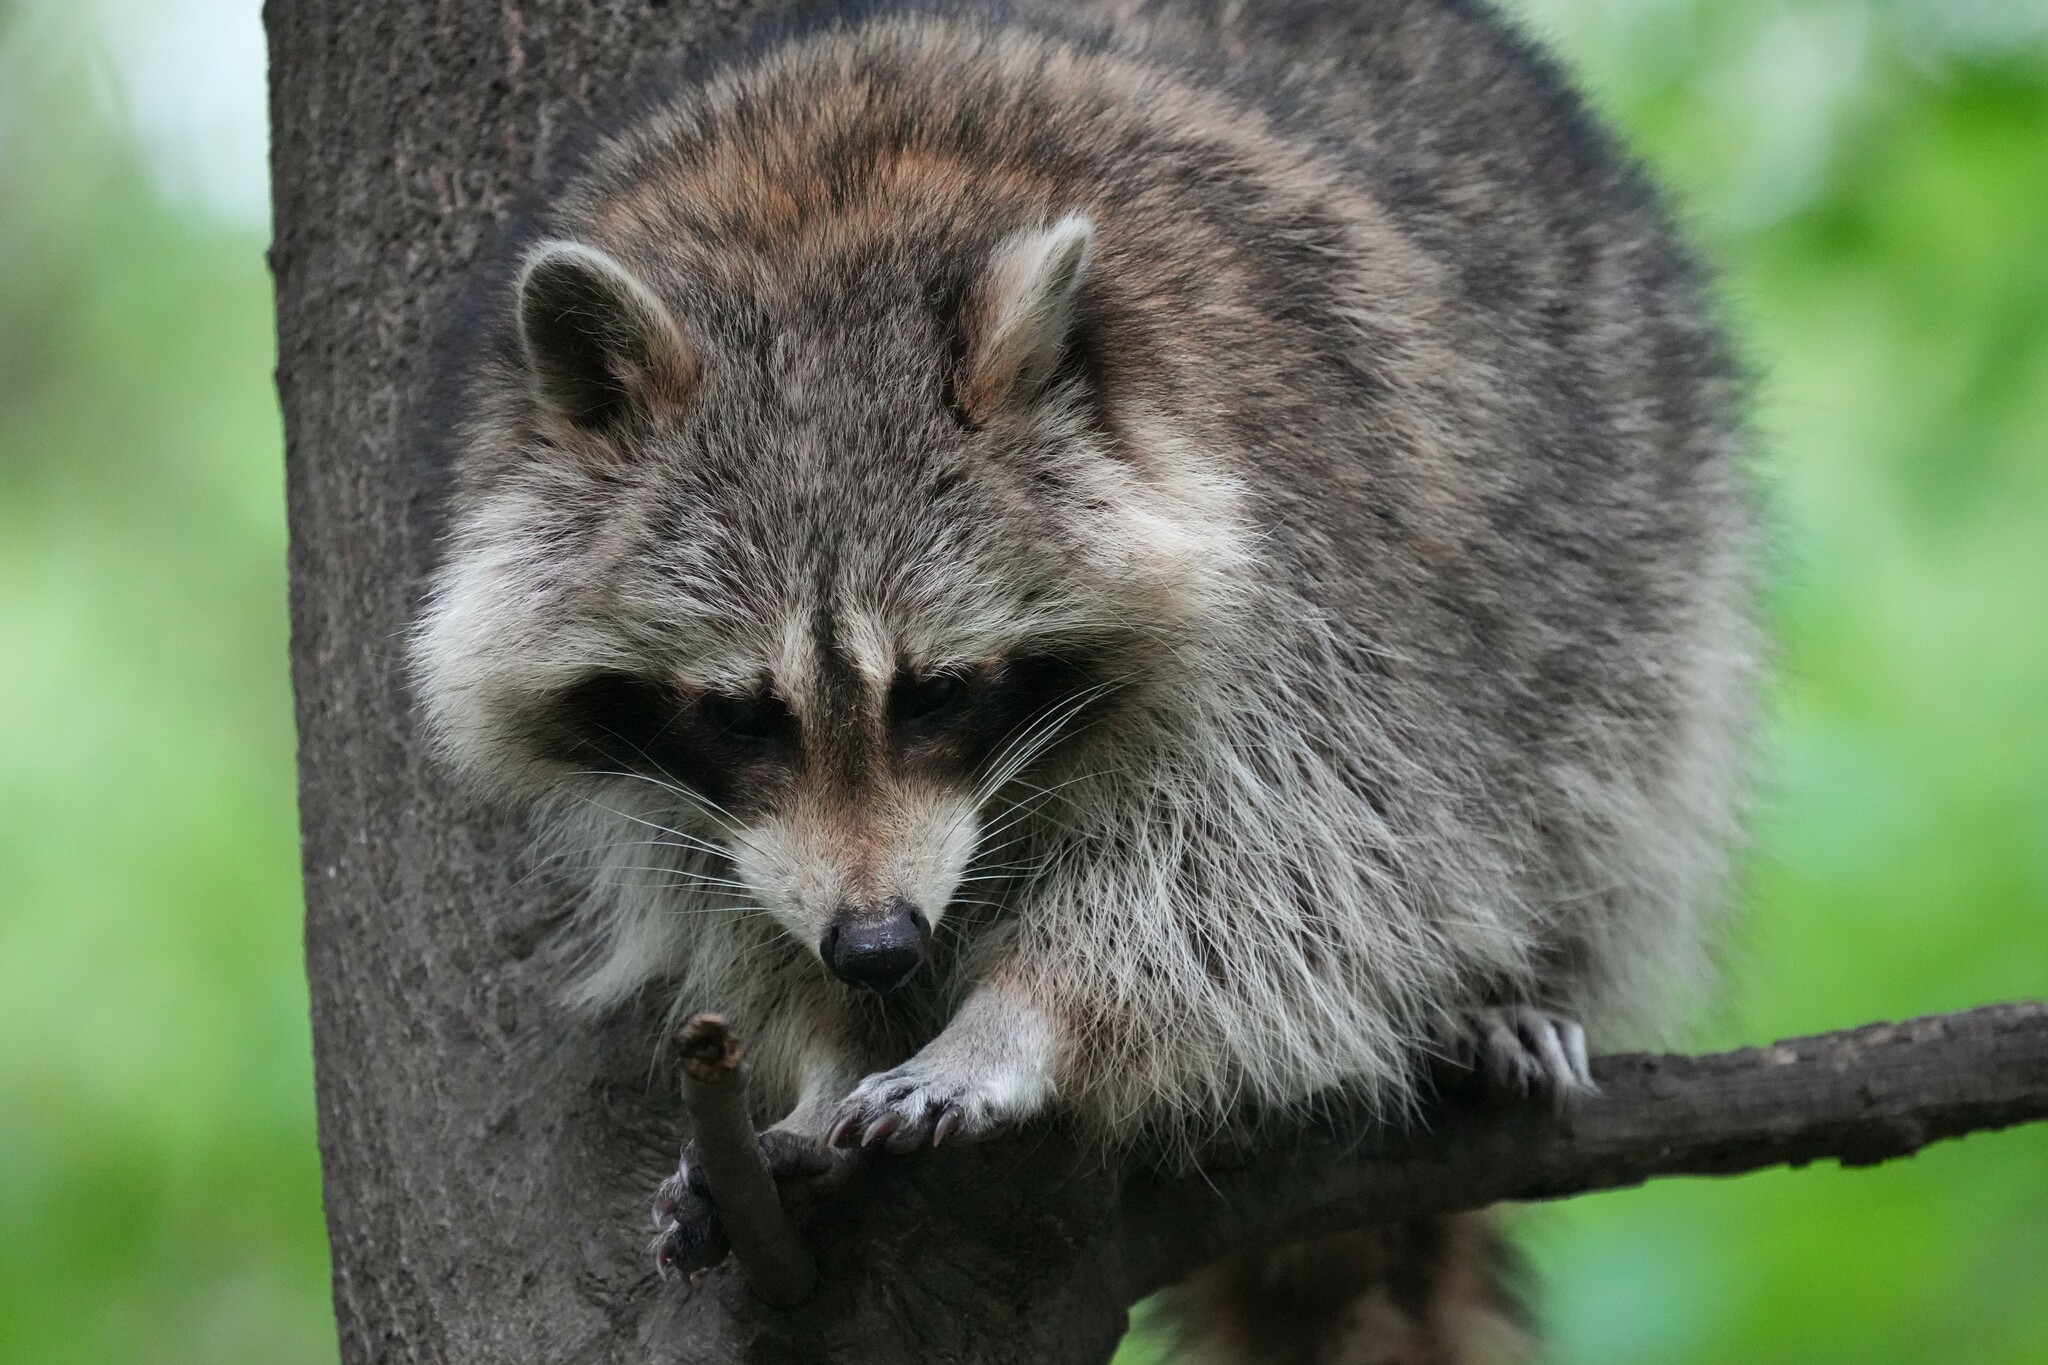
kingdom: Animalia
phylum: Chordata
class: Mammalia
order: Carnivora
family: Procyonidae
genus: Procyon
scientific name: Procyon lotor
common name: Raccoon
